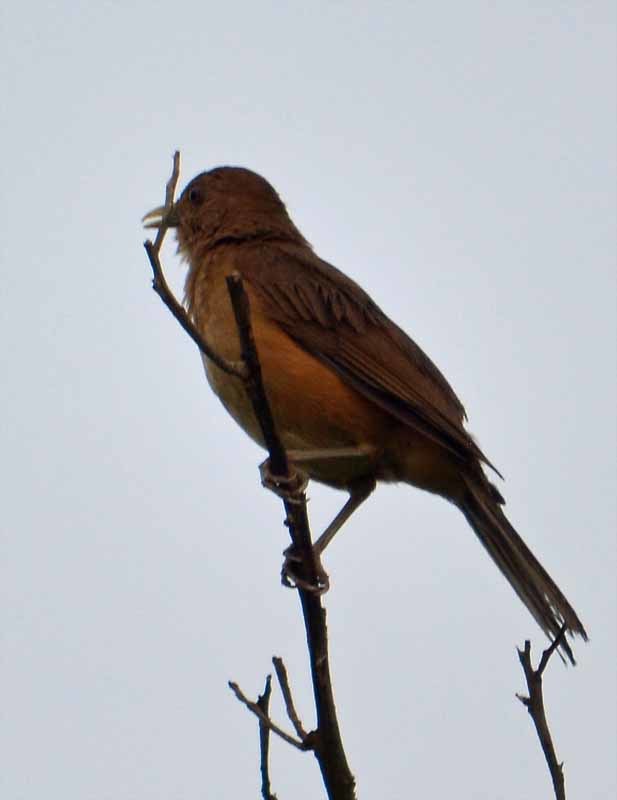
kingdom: Animalia
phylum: Chordata
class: Aves
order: Passeriformes
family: Turdidae
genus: Turdus
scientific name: Turdus grayi
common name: Clay-colored thrush
